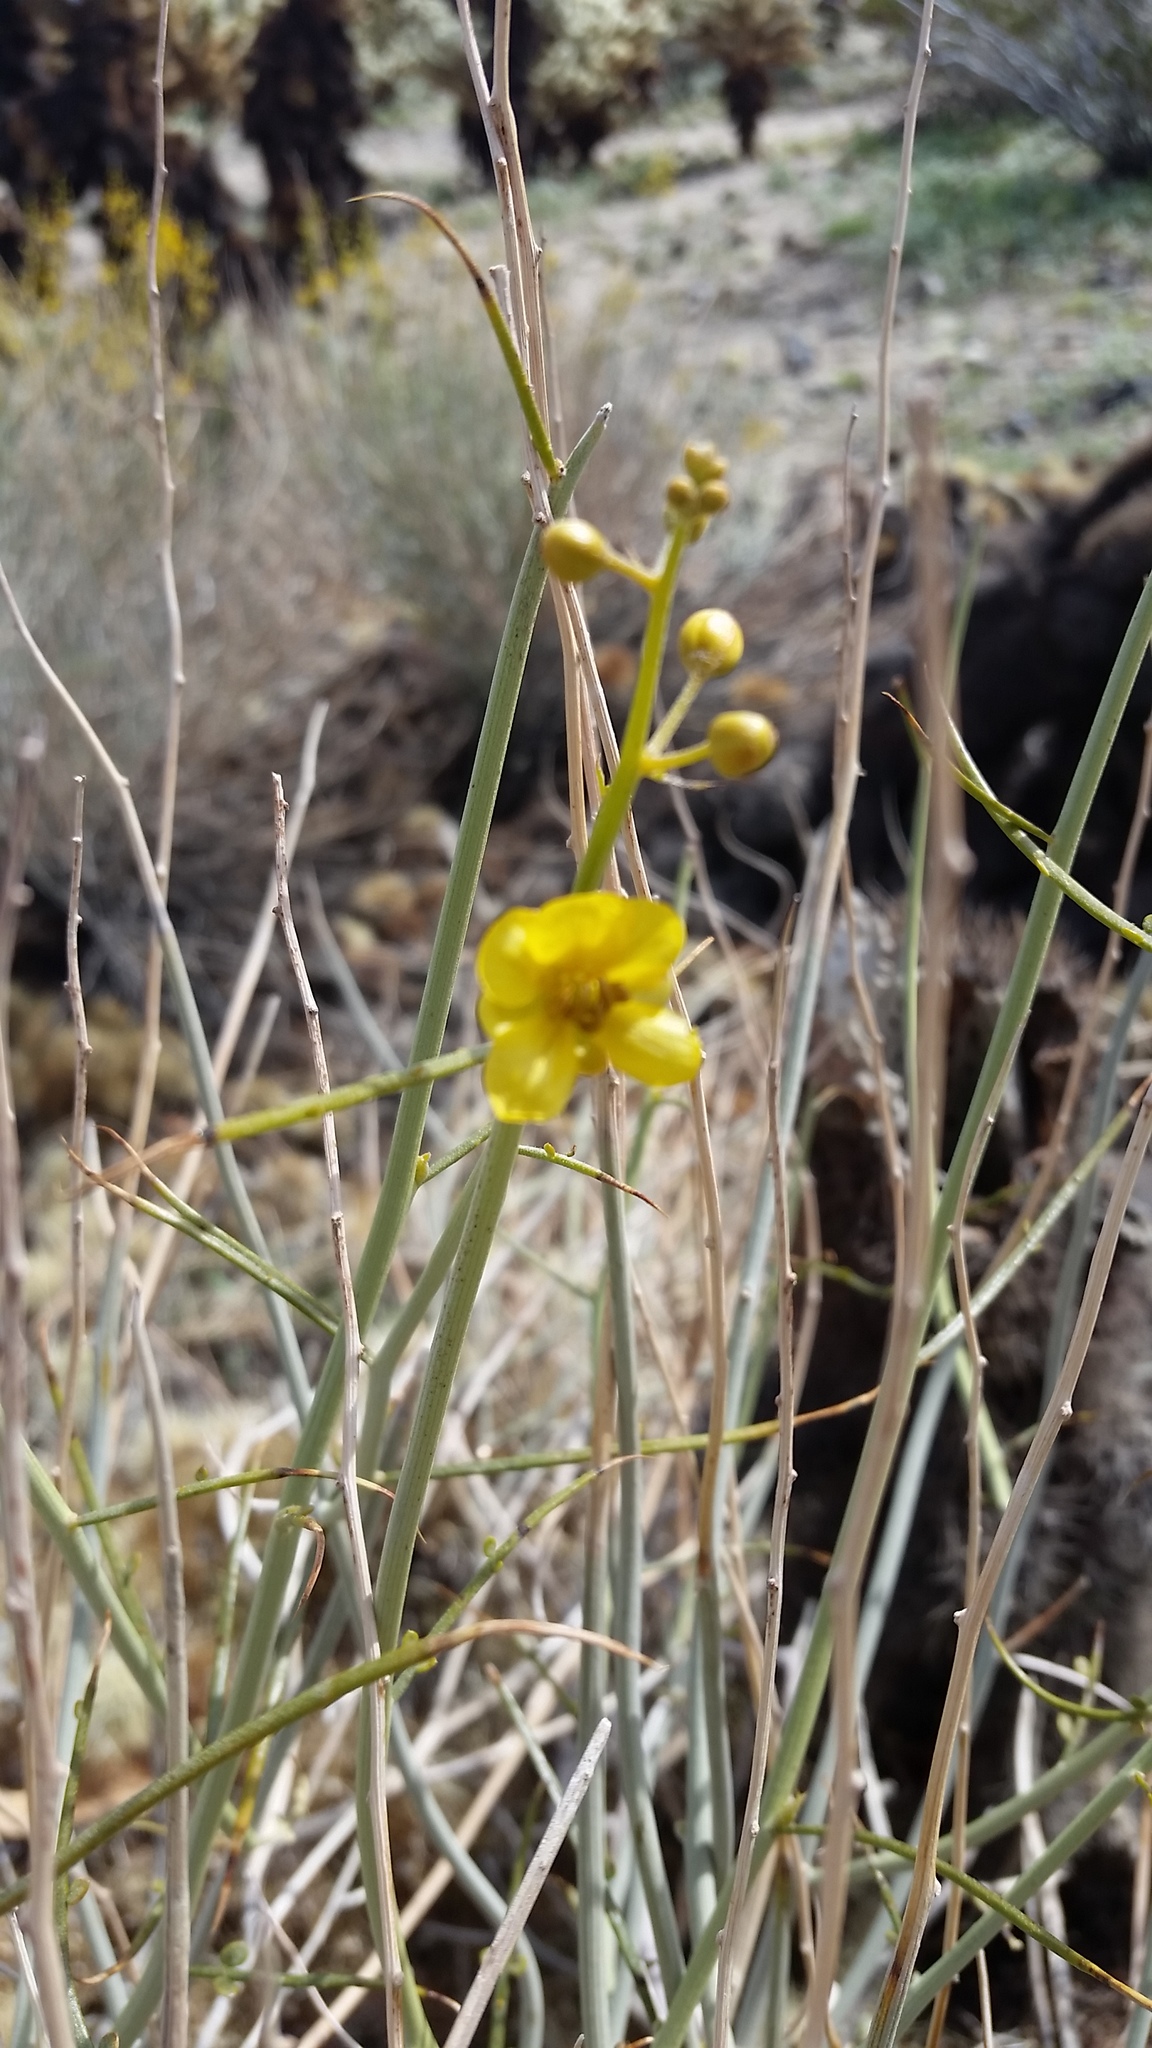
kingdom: Plantae
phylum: Tracheophyta
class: Magnoliopsida
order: Fabales
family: Fabaceae
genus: Senna
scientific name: Senna armata
